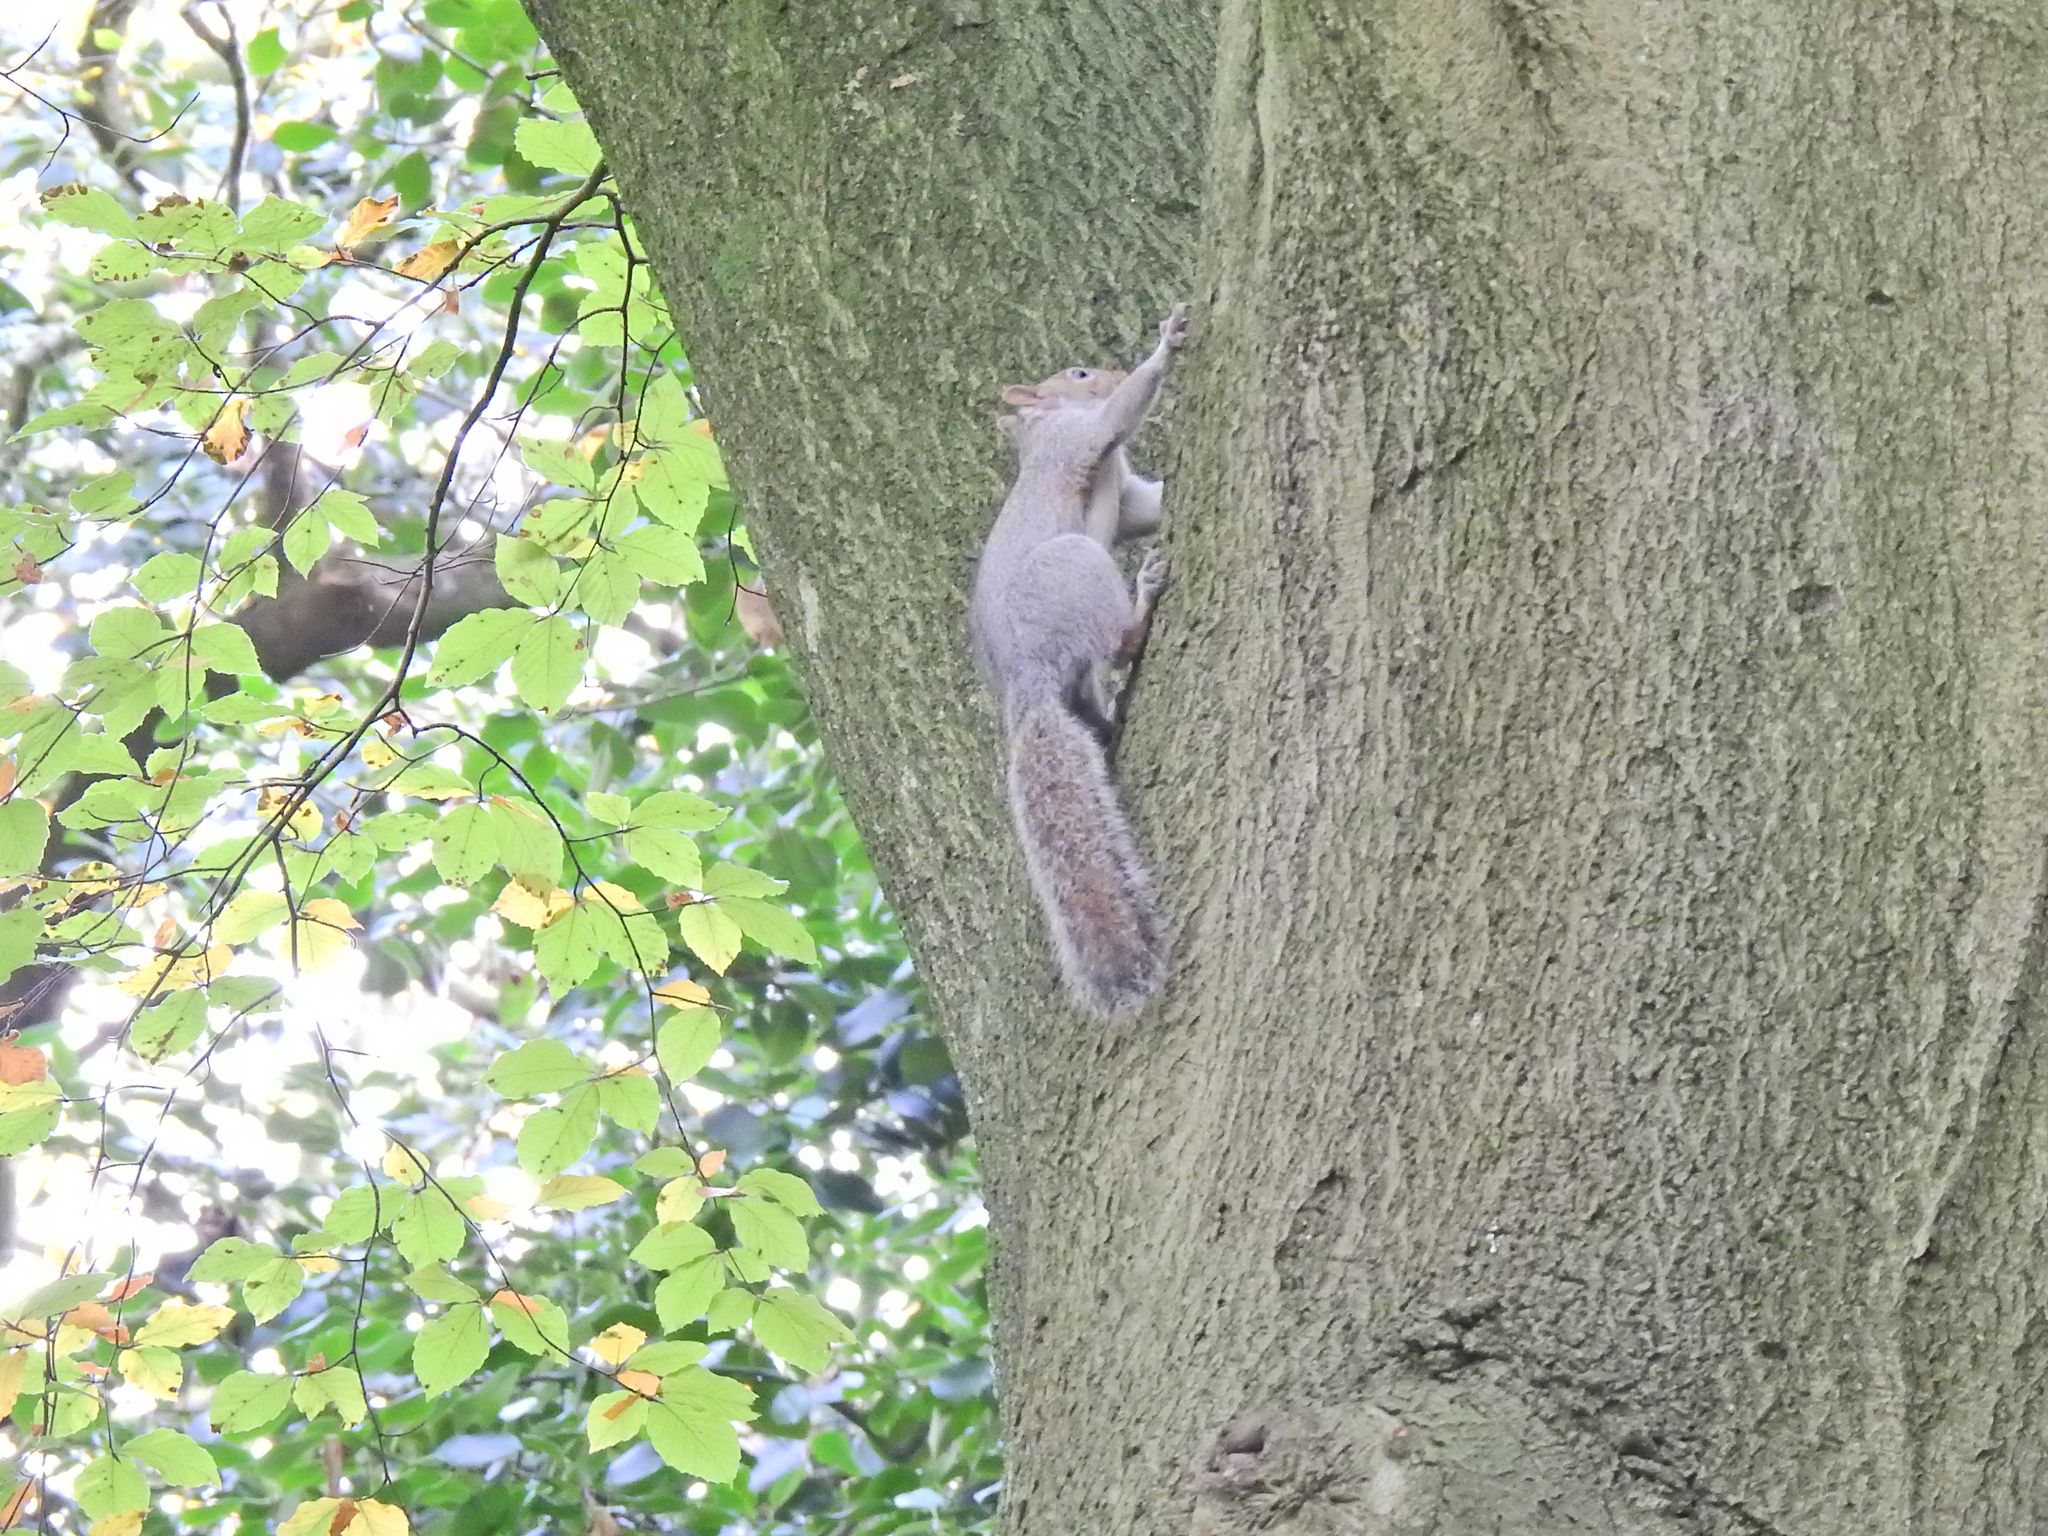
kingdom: Animalia
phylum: Chordata
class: Mammalia
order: Rodentia
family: Sciuridae
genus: Sciurus
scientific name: Sciurus carolinensis
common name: Eastern gray squirrel
